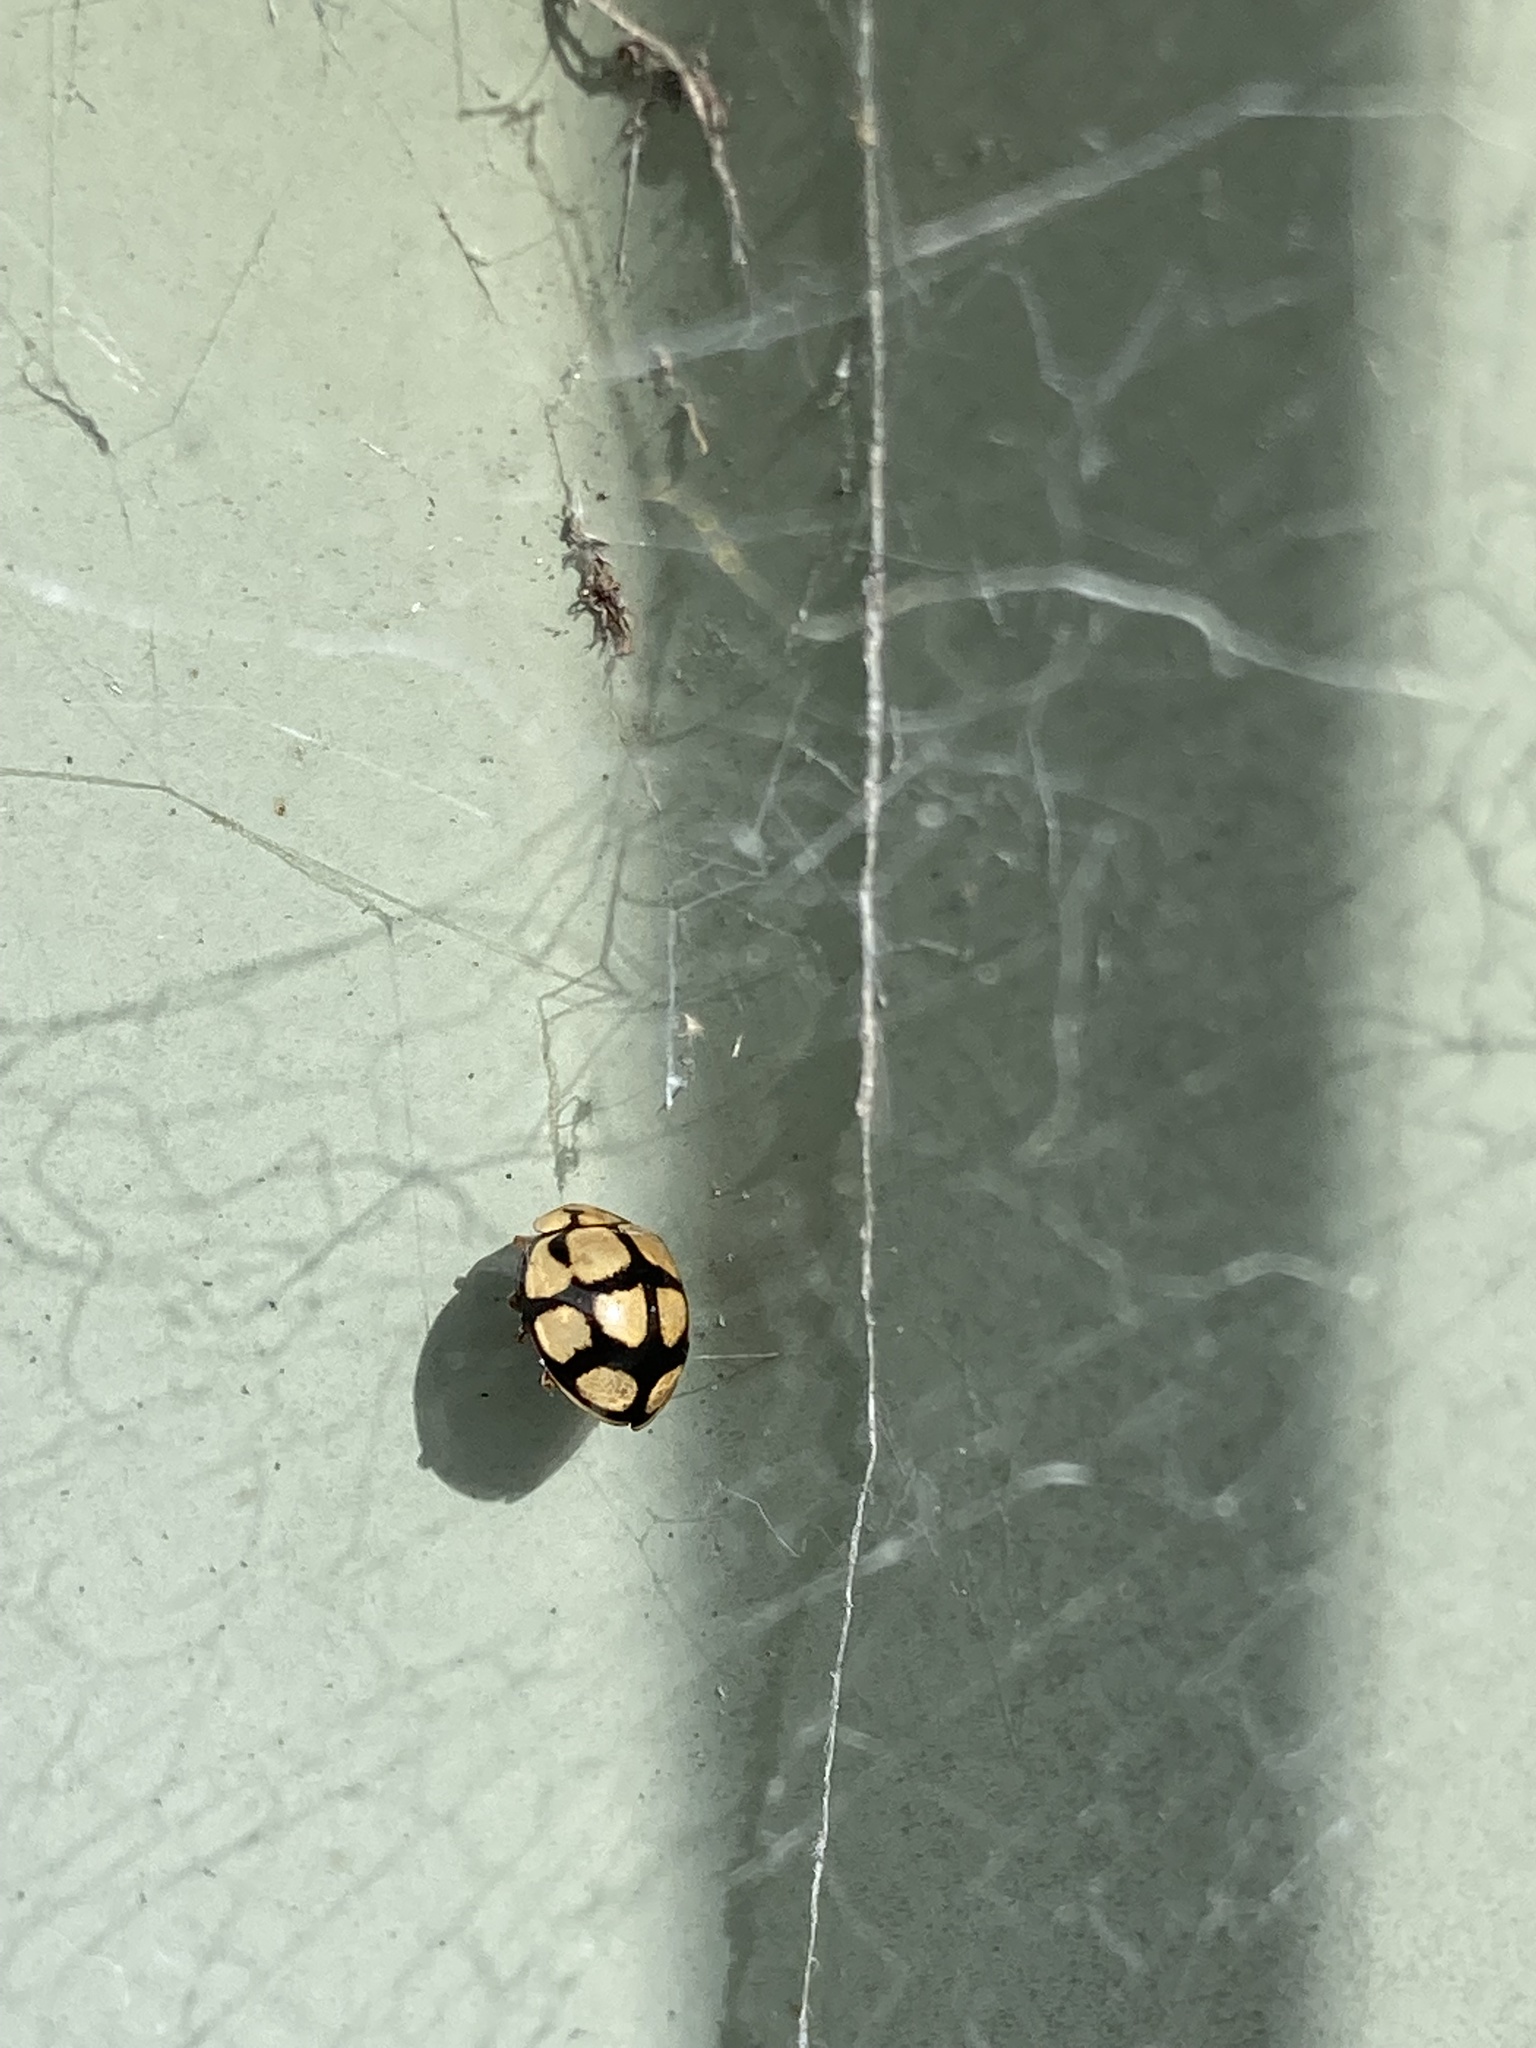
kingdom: Animalia
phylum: Arthropoda
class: Insecta
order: Coleoptera
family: Coccinellidae
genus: Harmonia
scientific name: Harmonia
